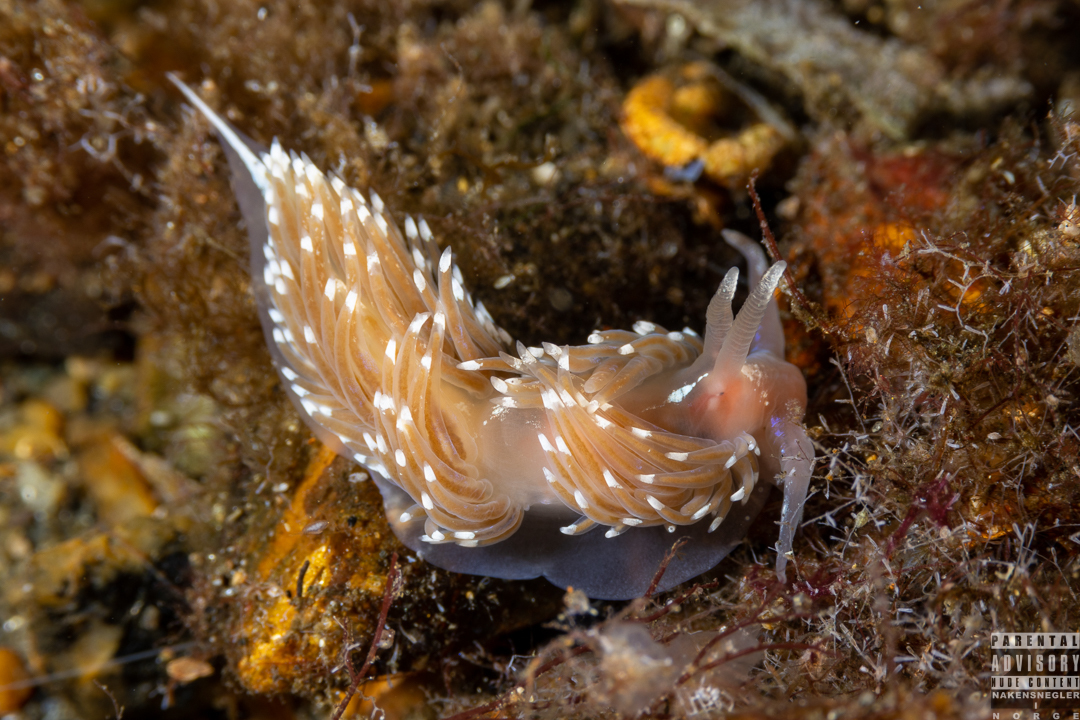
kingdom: Animalia
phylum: Mollusca
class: Gastropoda
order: Nudibranchia
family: Facelinidae
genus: Facelina
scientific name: Facelina bostoniensis
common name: Boston facelina
